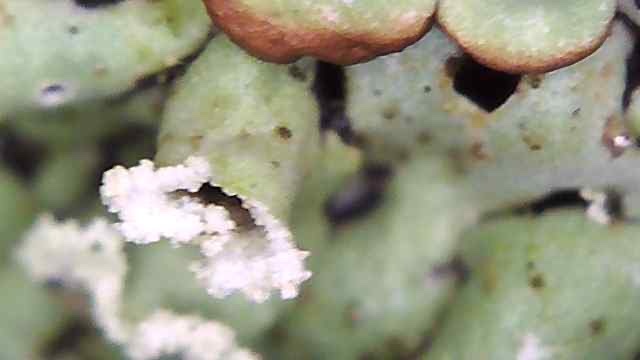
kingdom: Fungi
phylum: Ascomycota
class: Lecanoromycetes
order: Lecanorales
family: Parmeliaceae
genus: Menegazzia
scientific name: Menegazzia subsimilis
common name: Tree flute lichen
